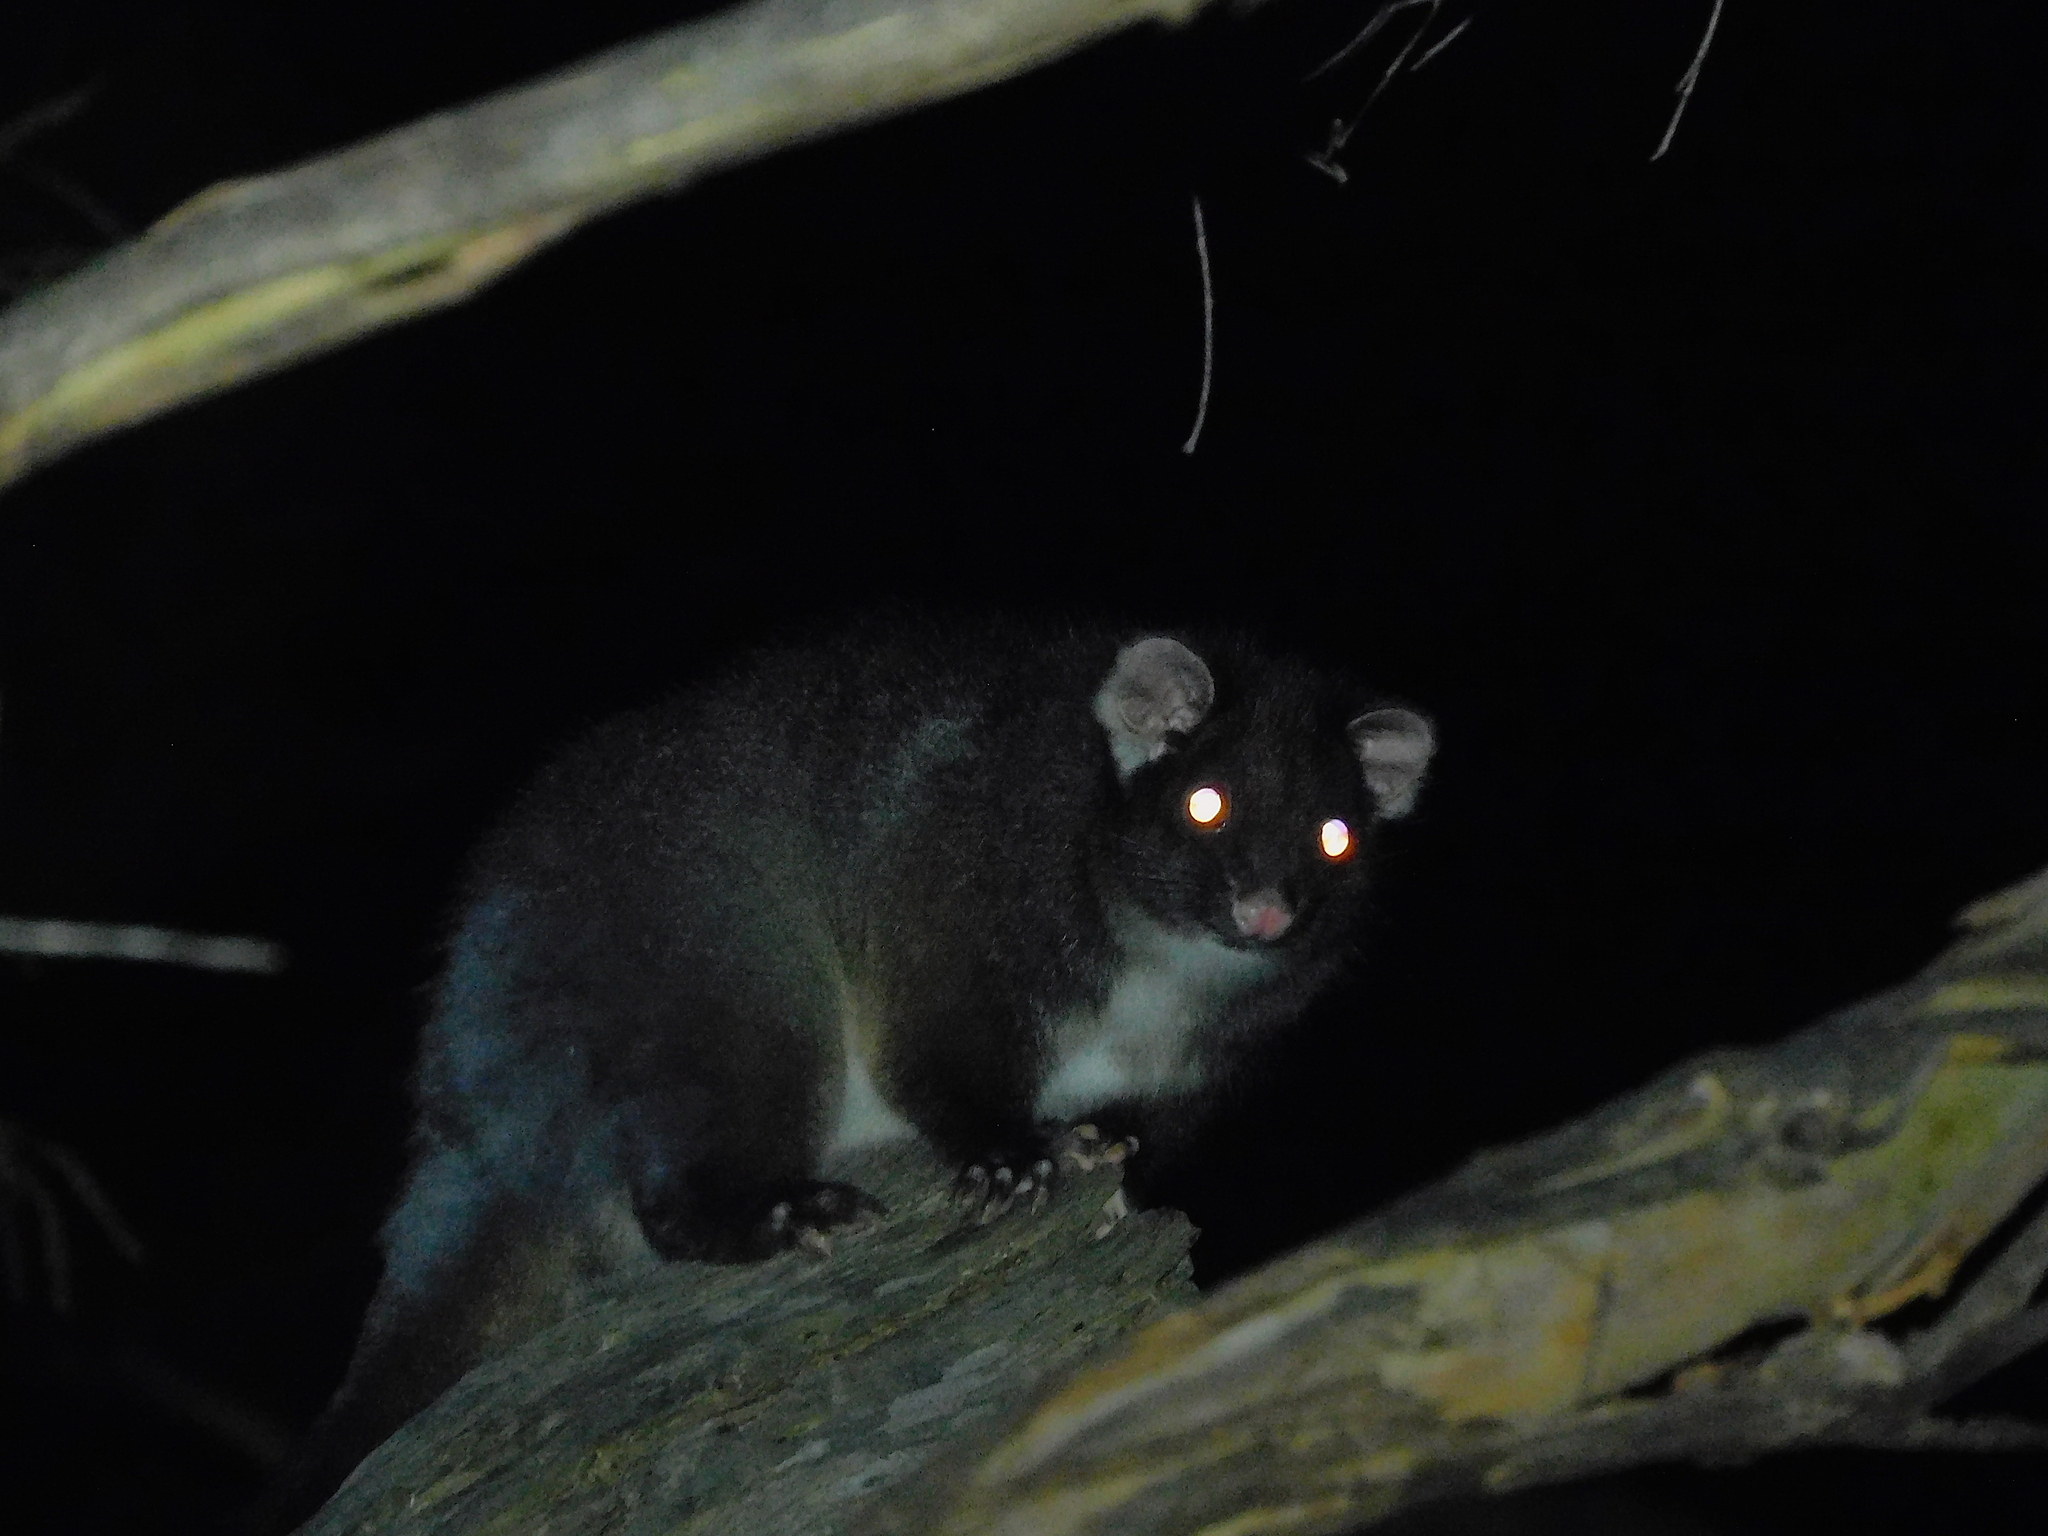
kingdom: Animalia
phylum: Chordata
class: Mammalia
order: Diprotodontia
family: Pseudocheiridae
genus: Pseudocheirus
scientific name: Pseudocheirus peregrinus
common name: Common ringtail possum
